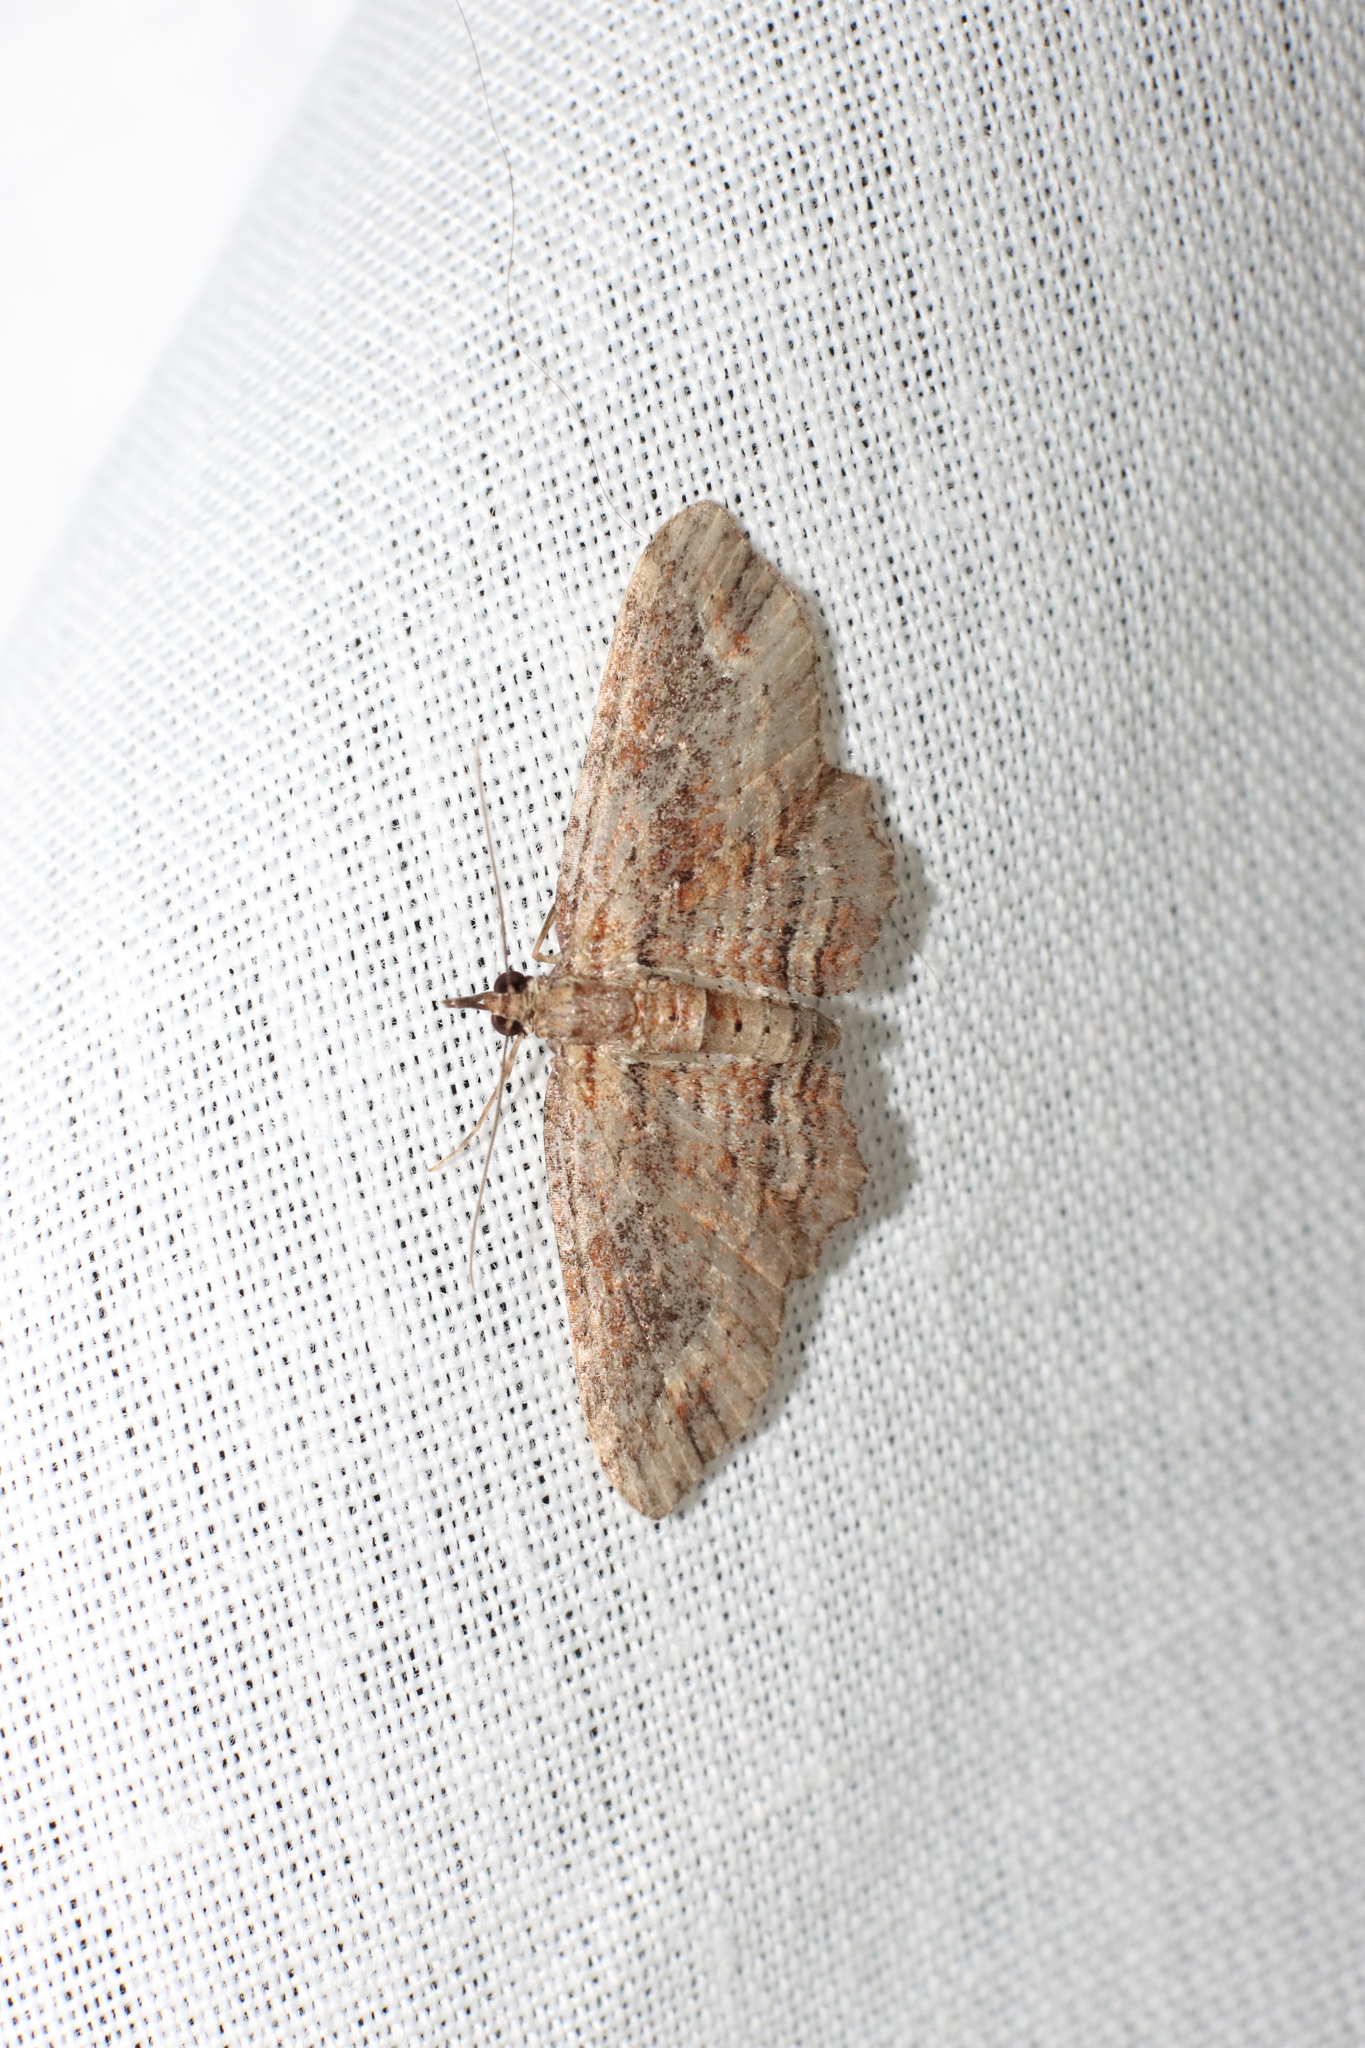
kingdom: Animalia
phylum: Arthropoda
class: Insecta
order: Lepidoptera
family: Geometridae
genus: Chloroclystis
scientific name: Chloroclystis filata
